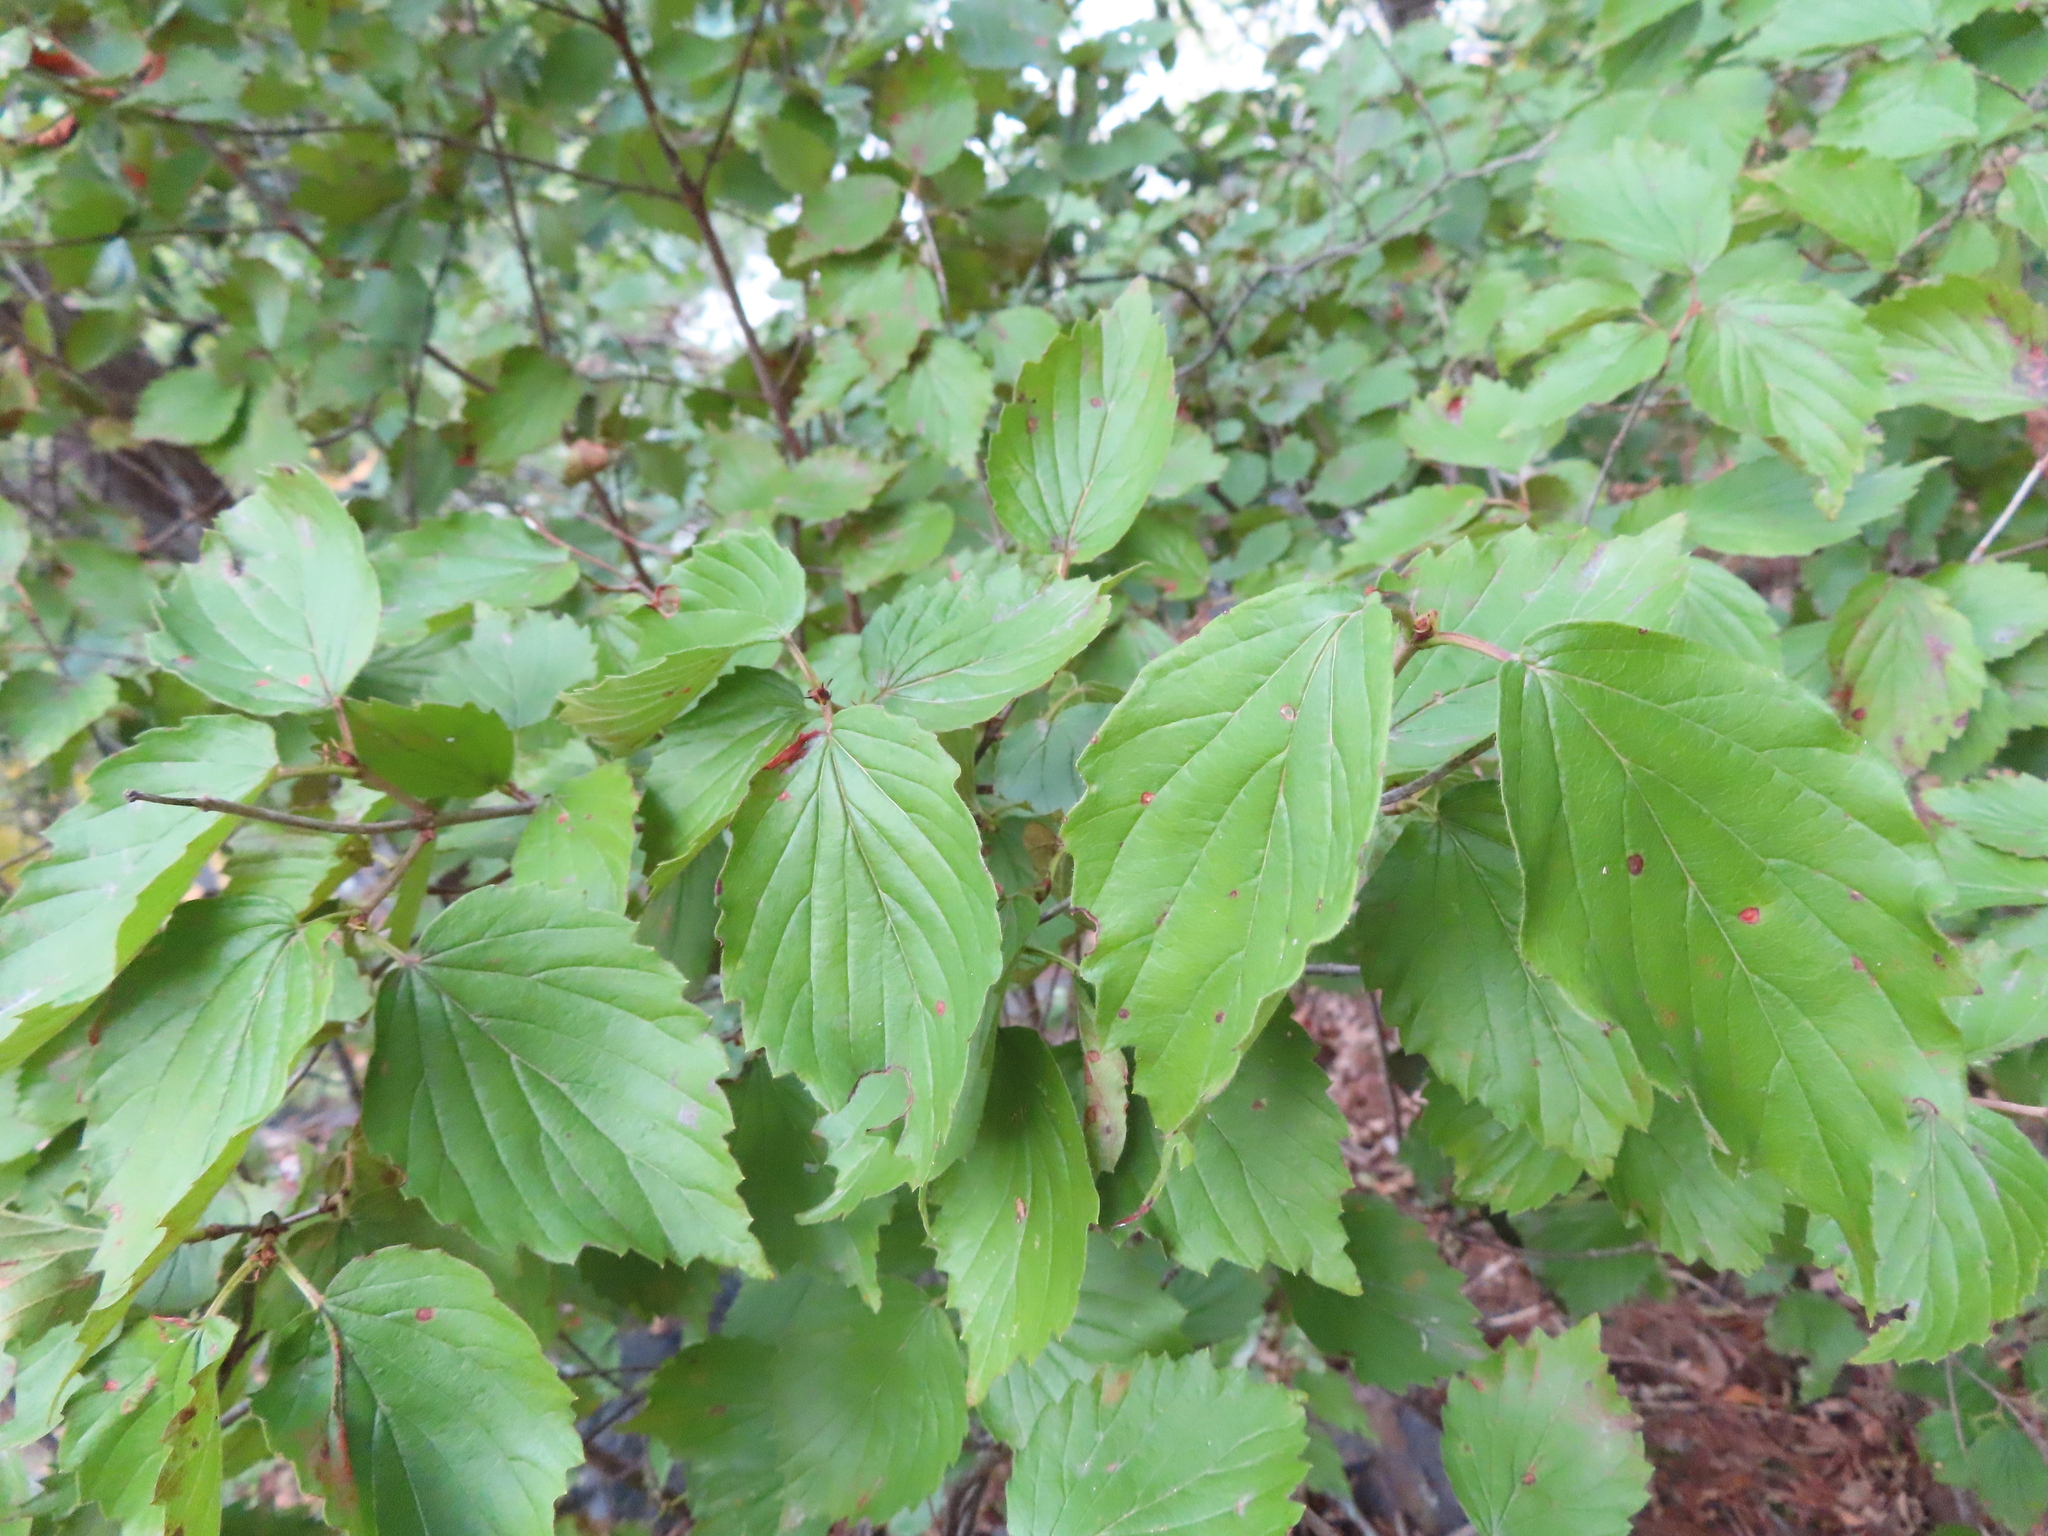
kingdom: Plantae
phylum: Tracheophyta
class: Magnoliopsida
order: Dipsacales
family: Viburnaceae
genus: Viburnum
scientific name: Viburnum rafinesqueanum
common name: Downy arrow-wood
